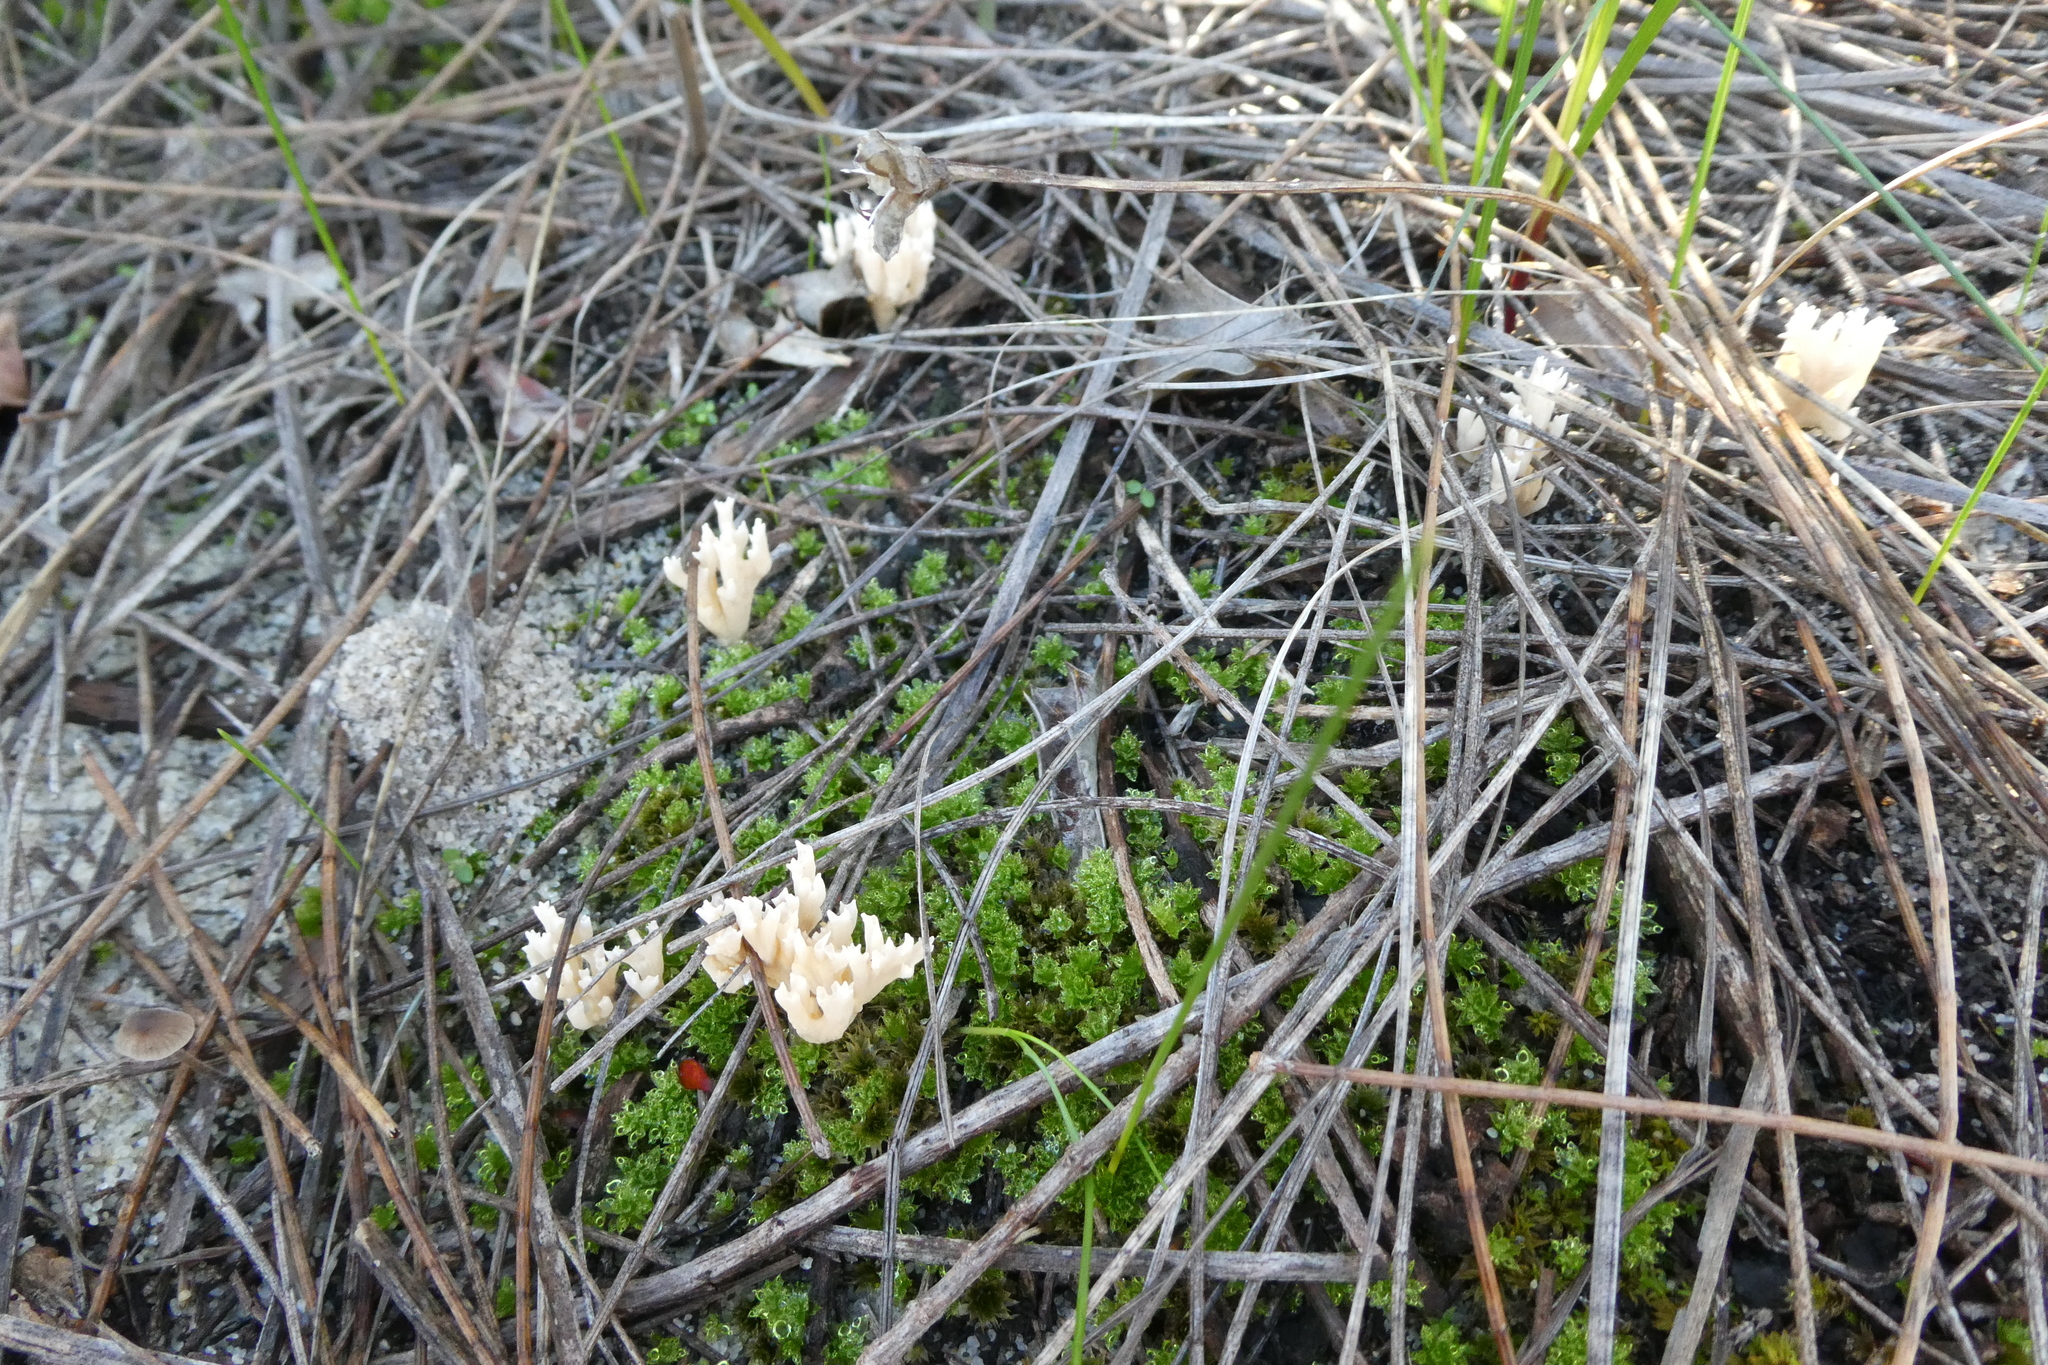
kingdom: Fungi
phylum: Basidiomycota
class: Agaricomycetes
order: Gomphales
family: Gomphaceae
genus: Ramaria
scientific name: Ramaria filicicola
